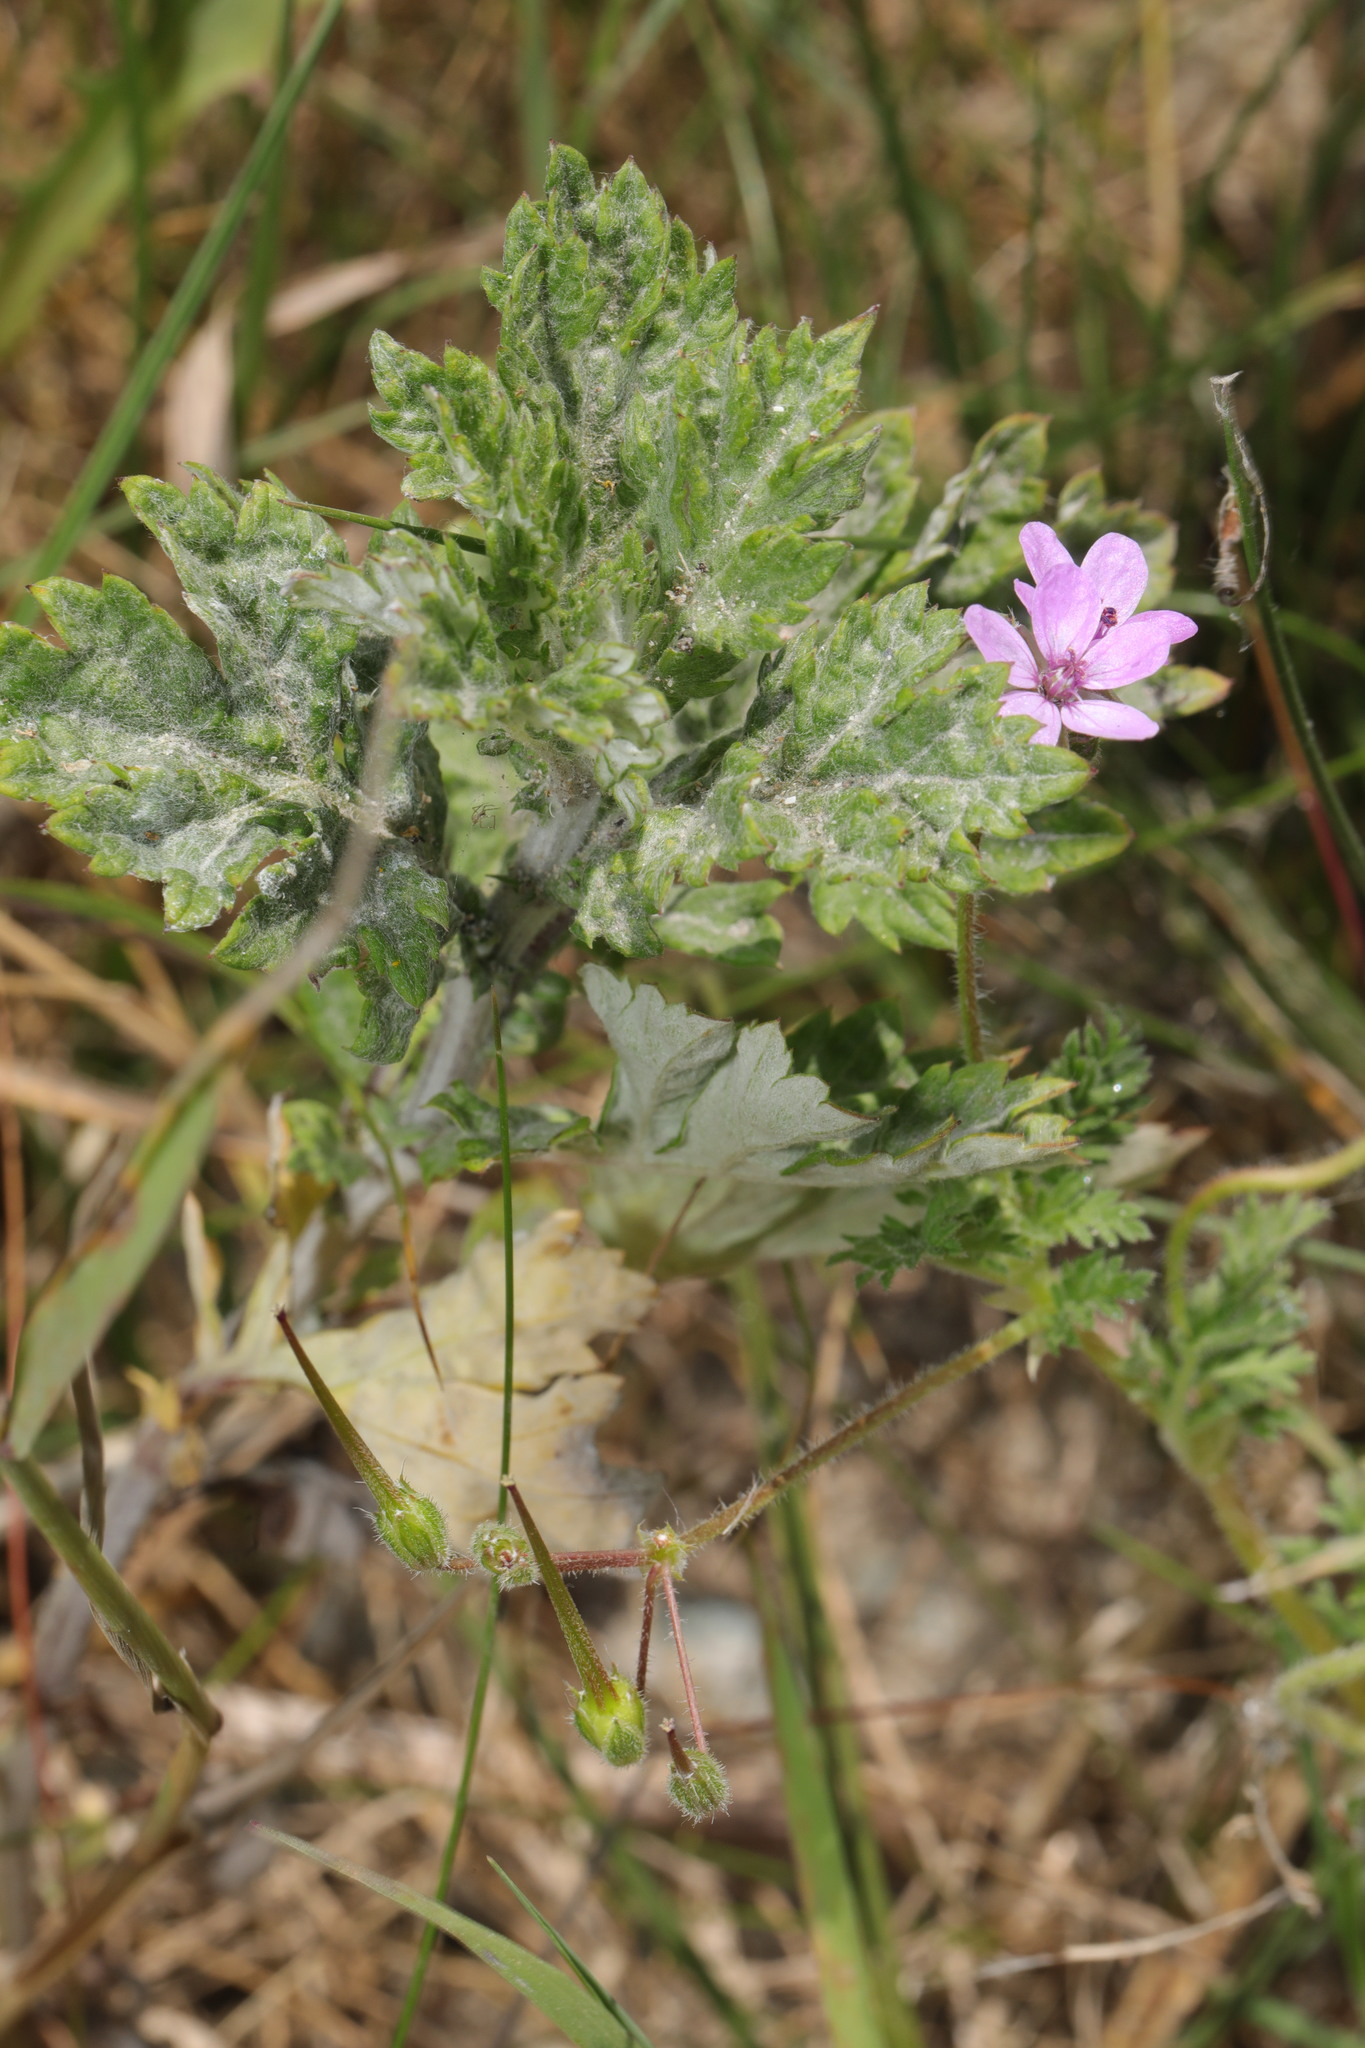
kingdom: Plantae
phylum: Tracheophyta
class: Magnoliopsida
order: Geraniales
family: Geraniaceae
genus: Geranium
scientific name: Geranium robertianum
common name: Herb-robert
